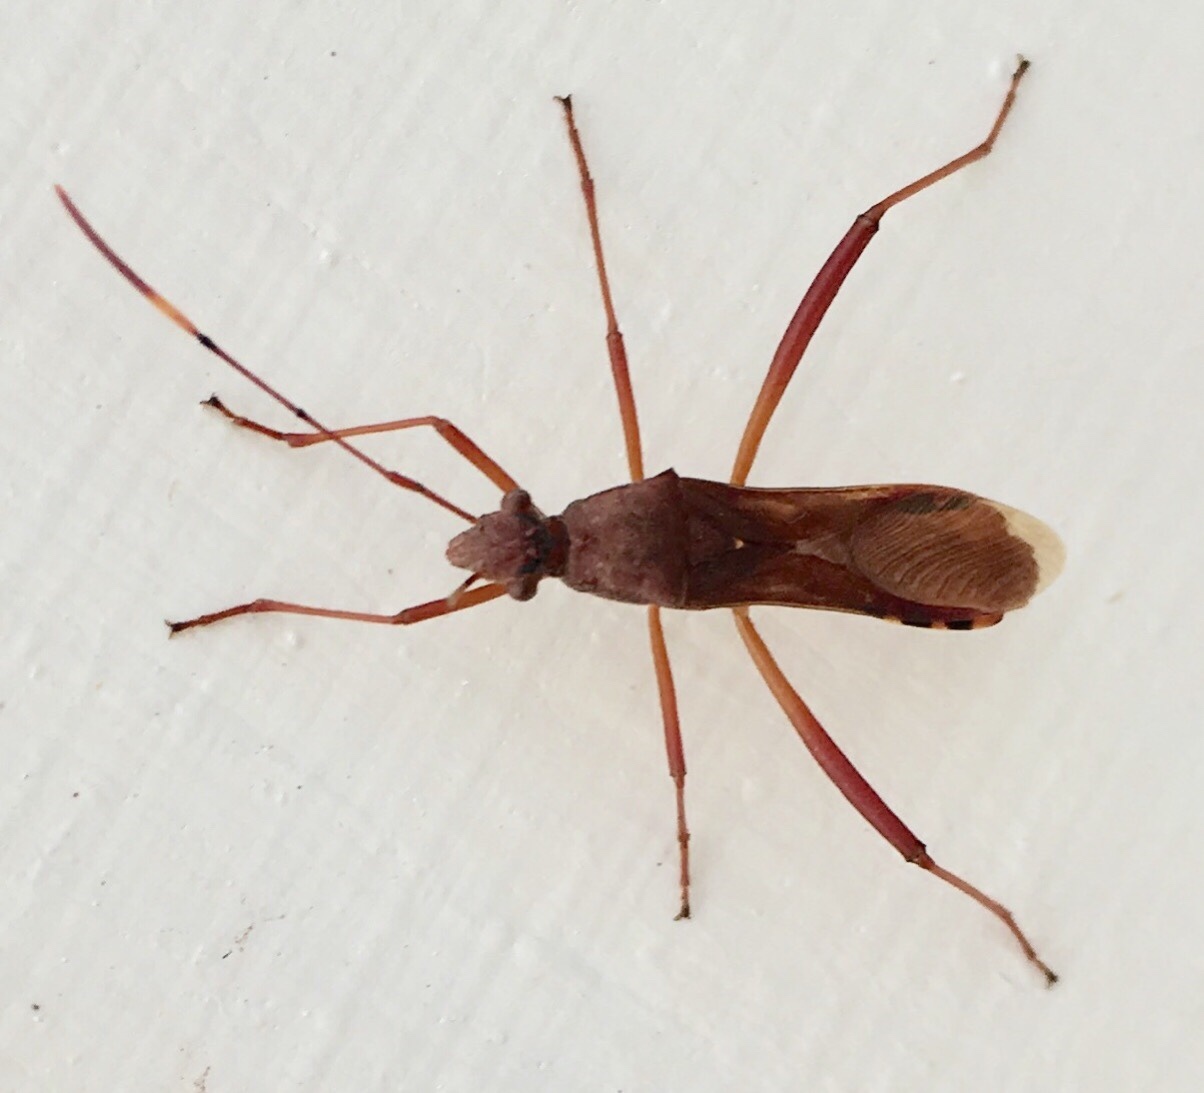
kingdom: Animalia
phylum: Arthropoda
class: Insecta
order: Hemiptera
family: Alydidae
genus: Megalotomus
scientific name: Megalotomus quinquespinosus
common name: Lupine bug
